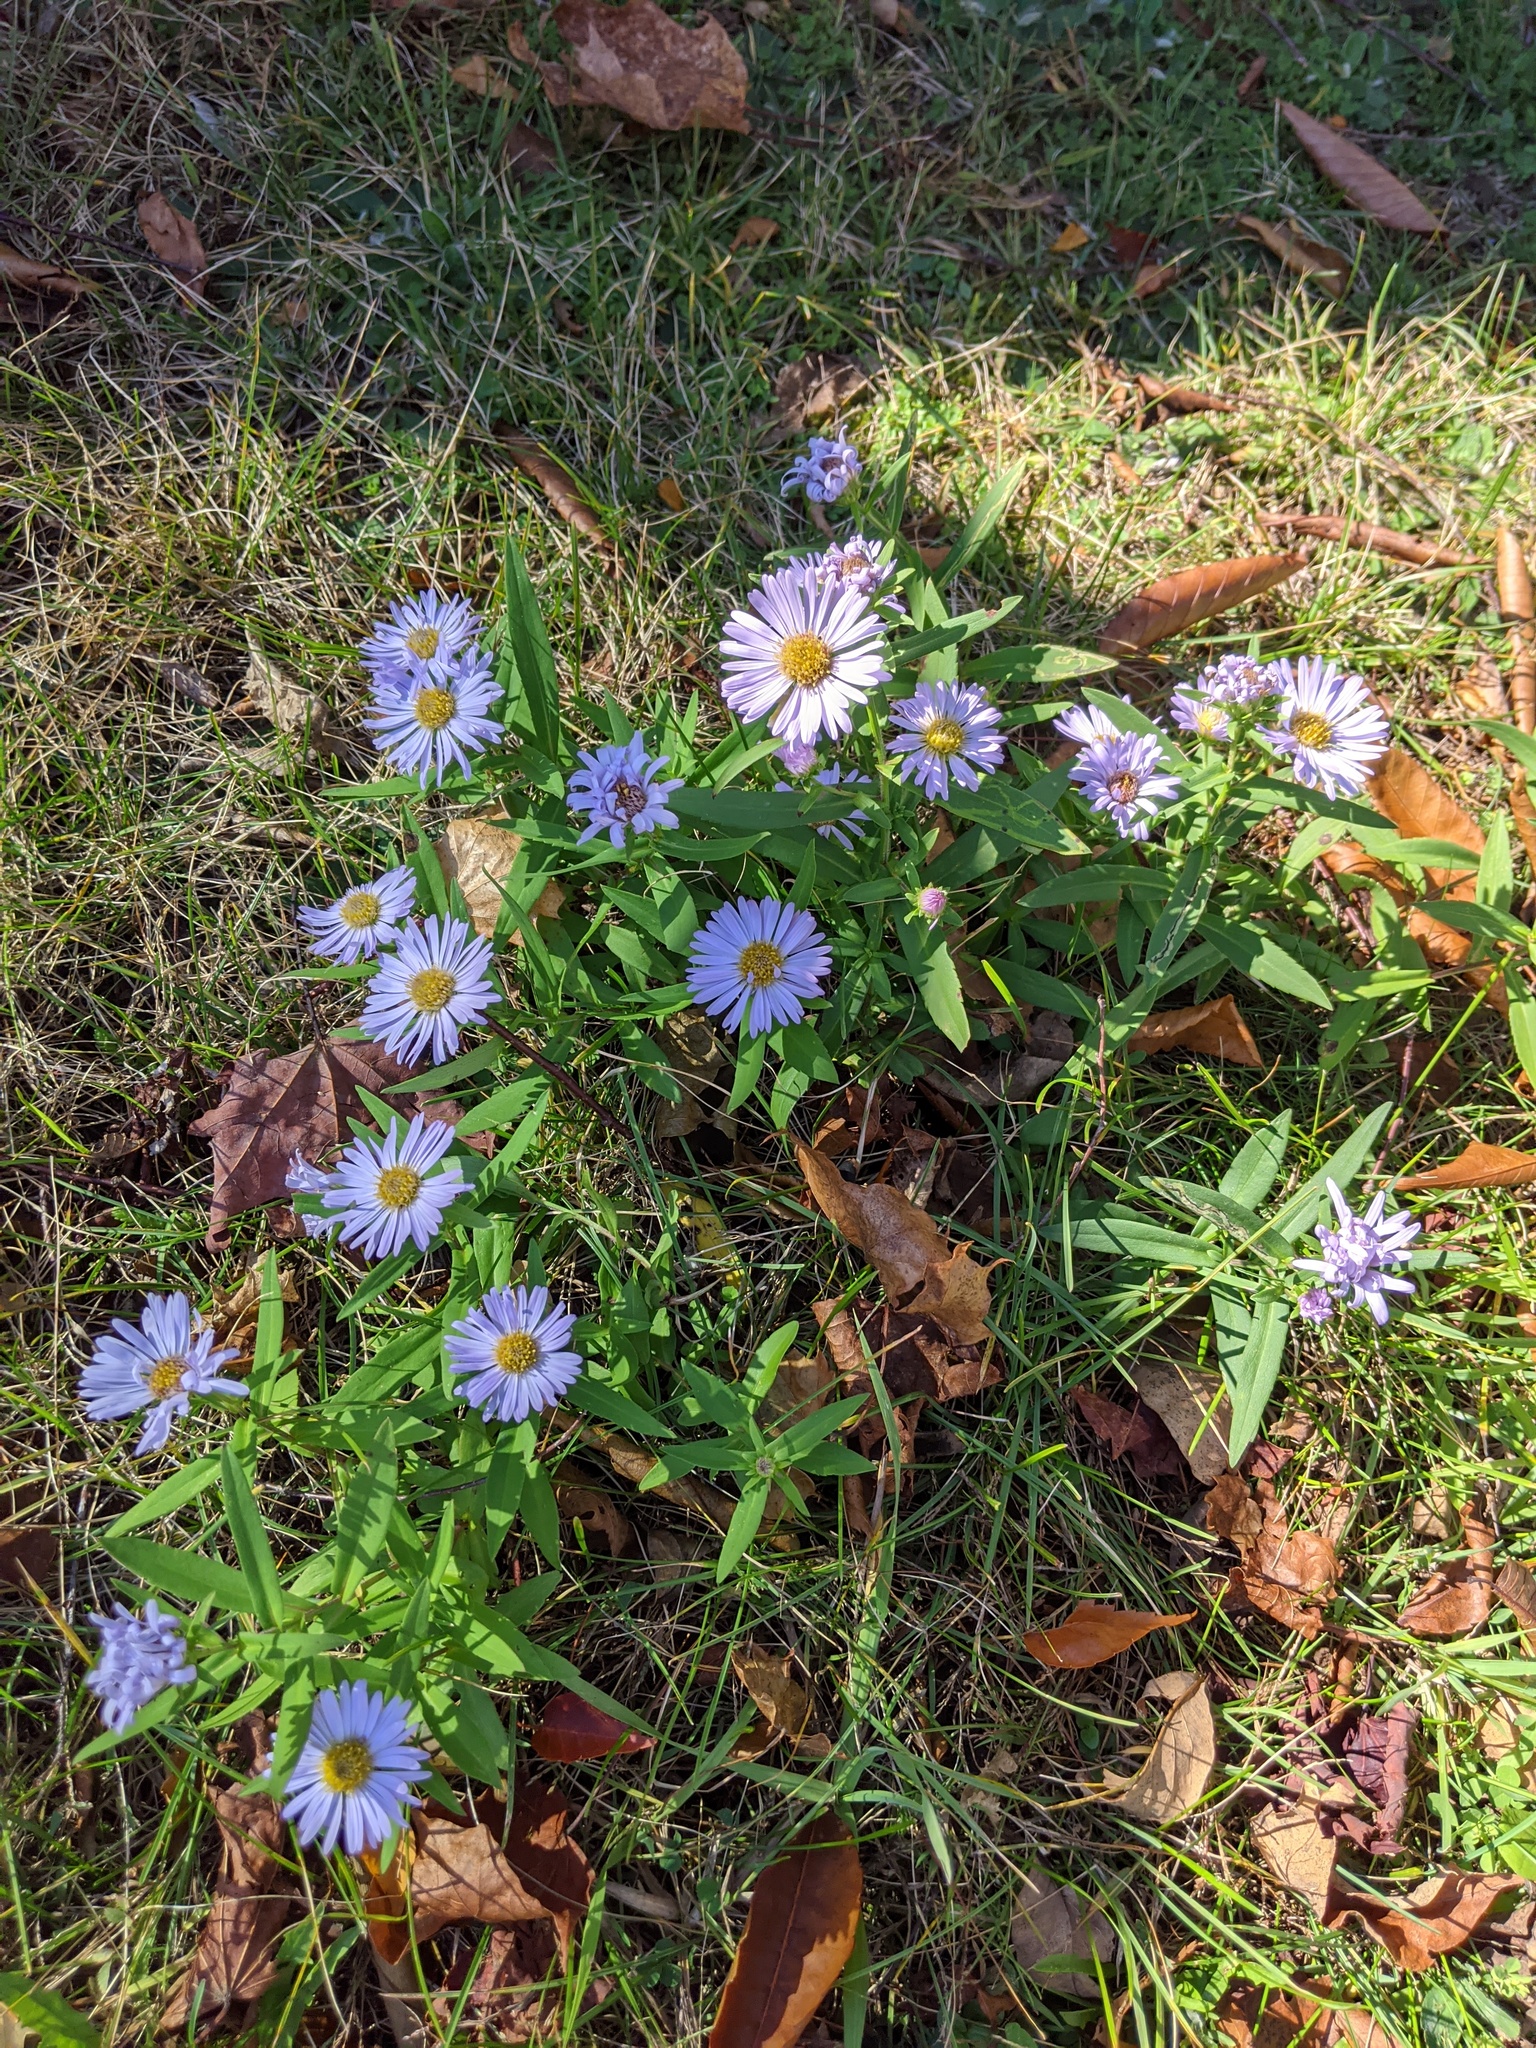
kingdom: Plantae
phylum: Tracheophyta
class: Magnoliopsida
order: Asterales
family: Asteraceae
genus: Symphyotrichum
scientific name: Symphyotrichum novi-belgii
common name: Michaelmas daisy
